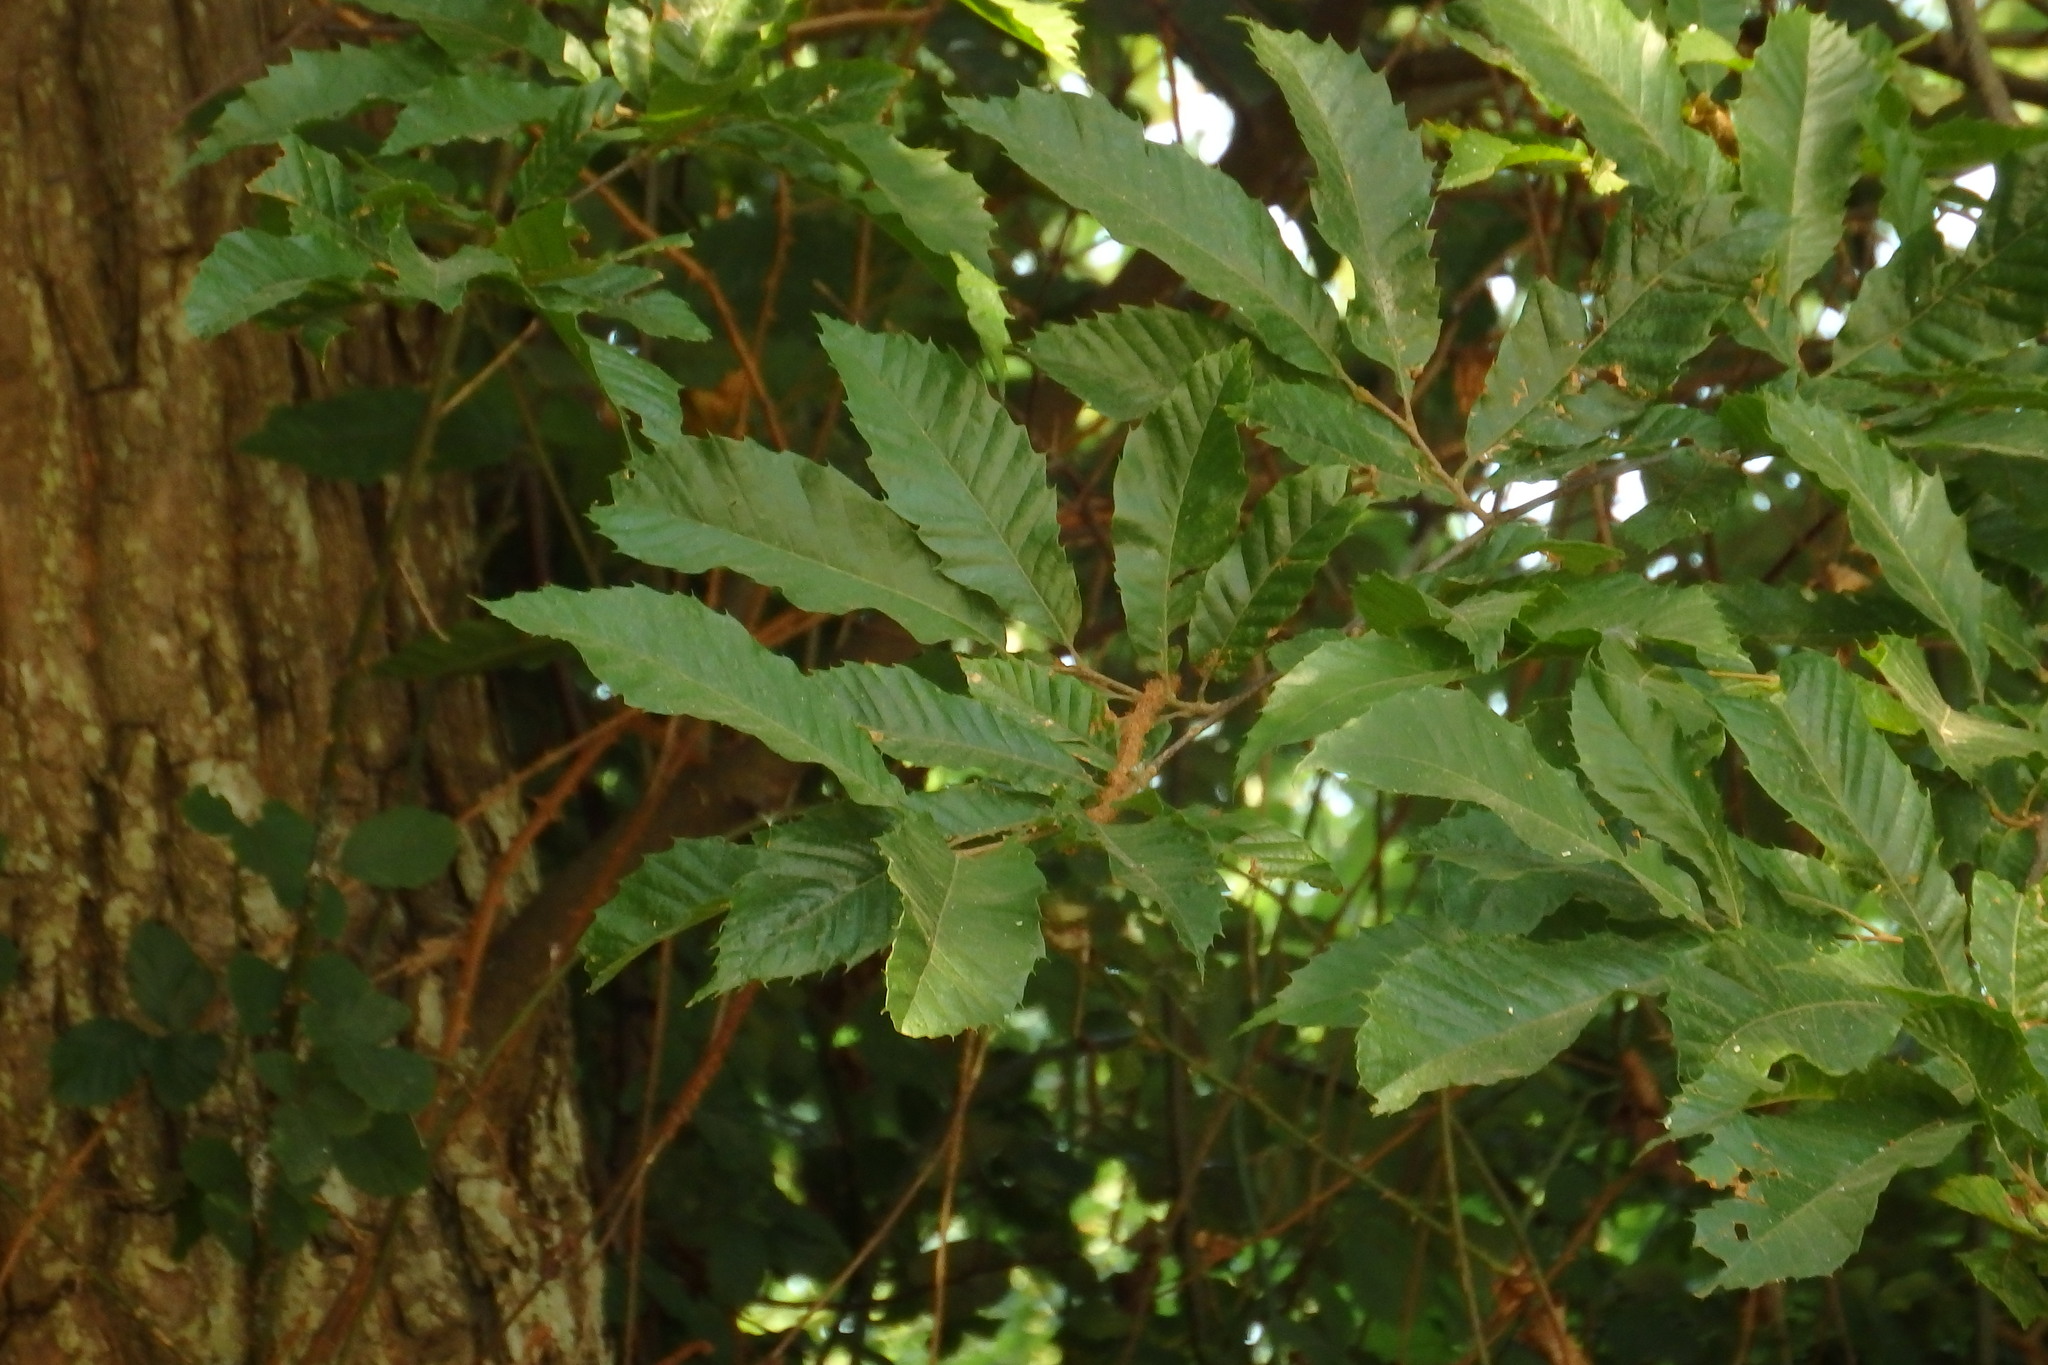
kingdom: Plantae
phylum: Tracheophyta
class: Magnoliopsida
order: Fagales
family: Fagaceae
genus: Castanea
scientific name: Castanea sativa
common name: Sweet chestnut
